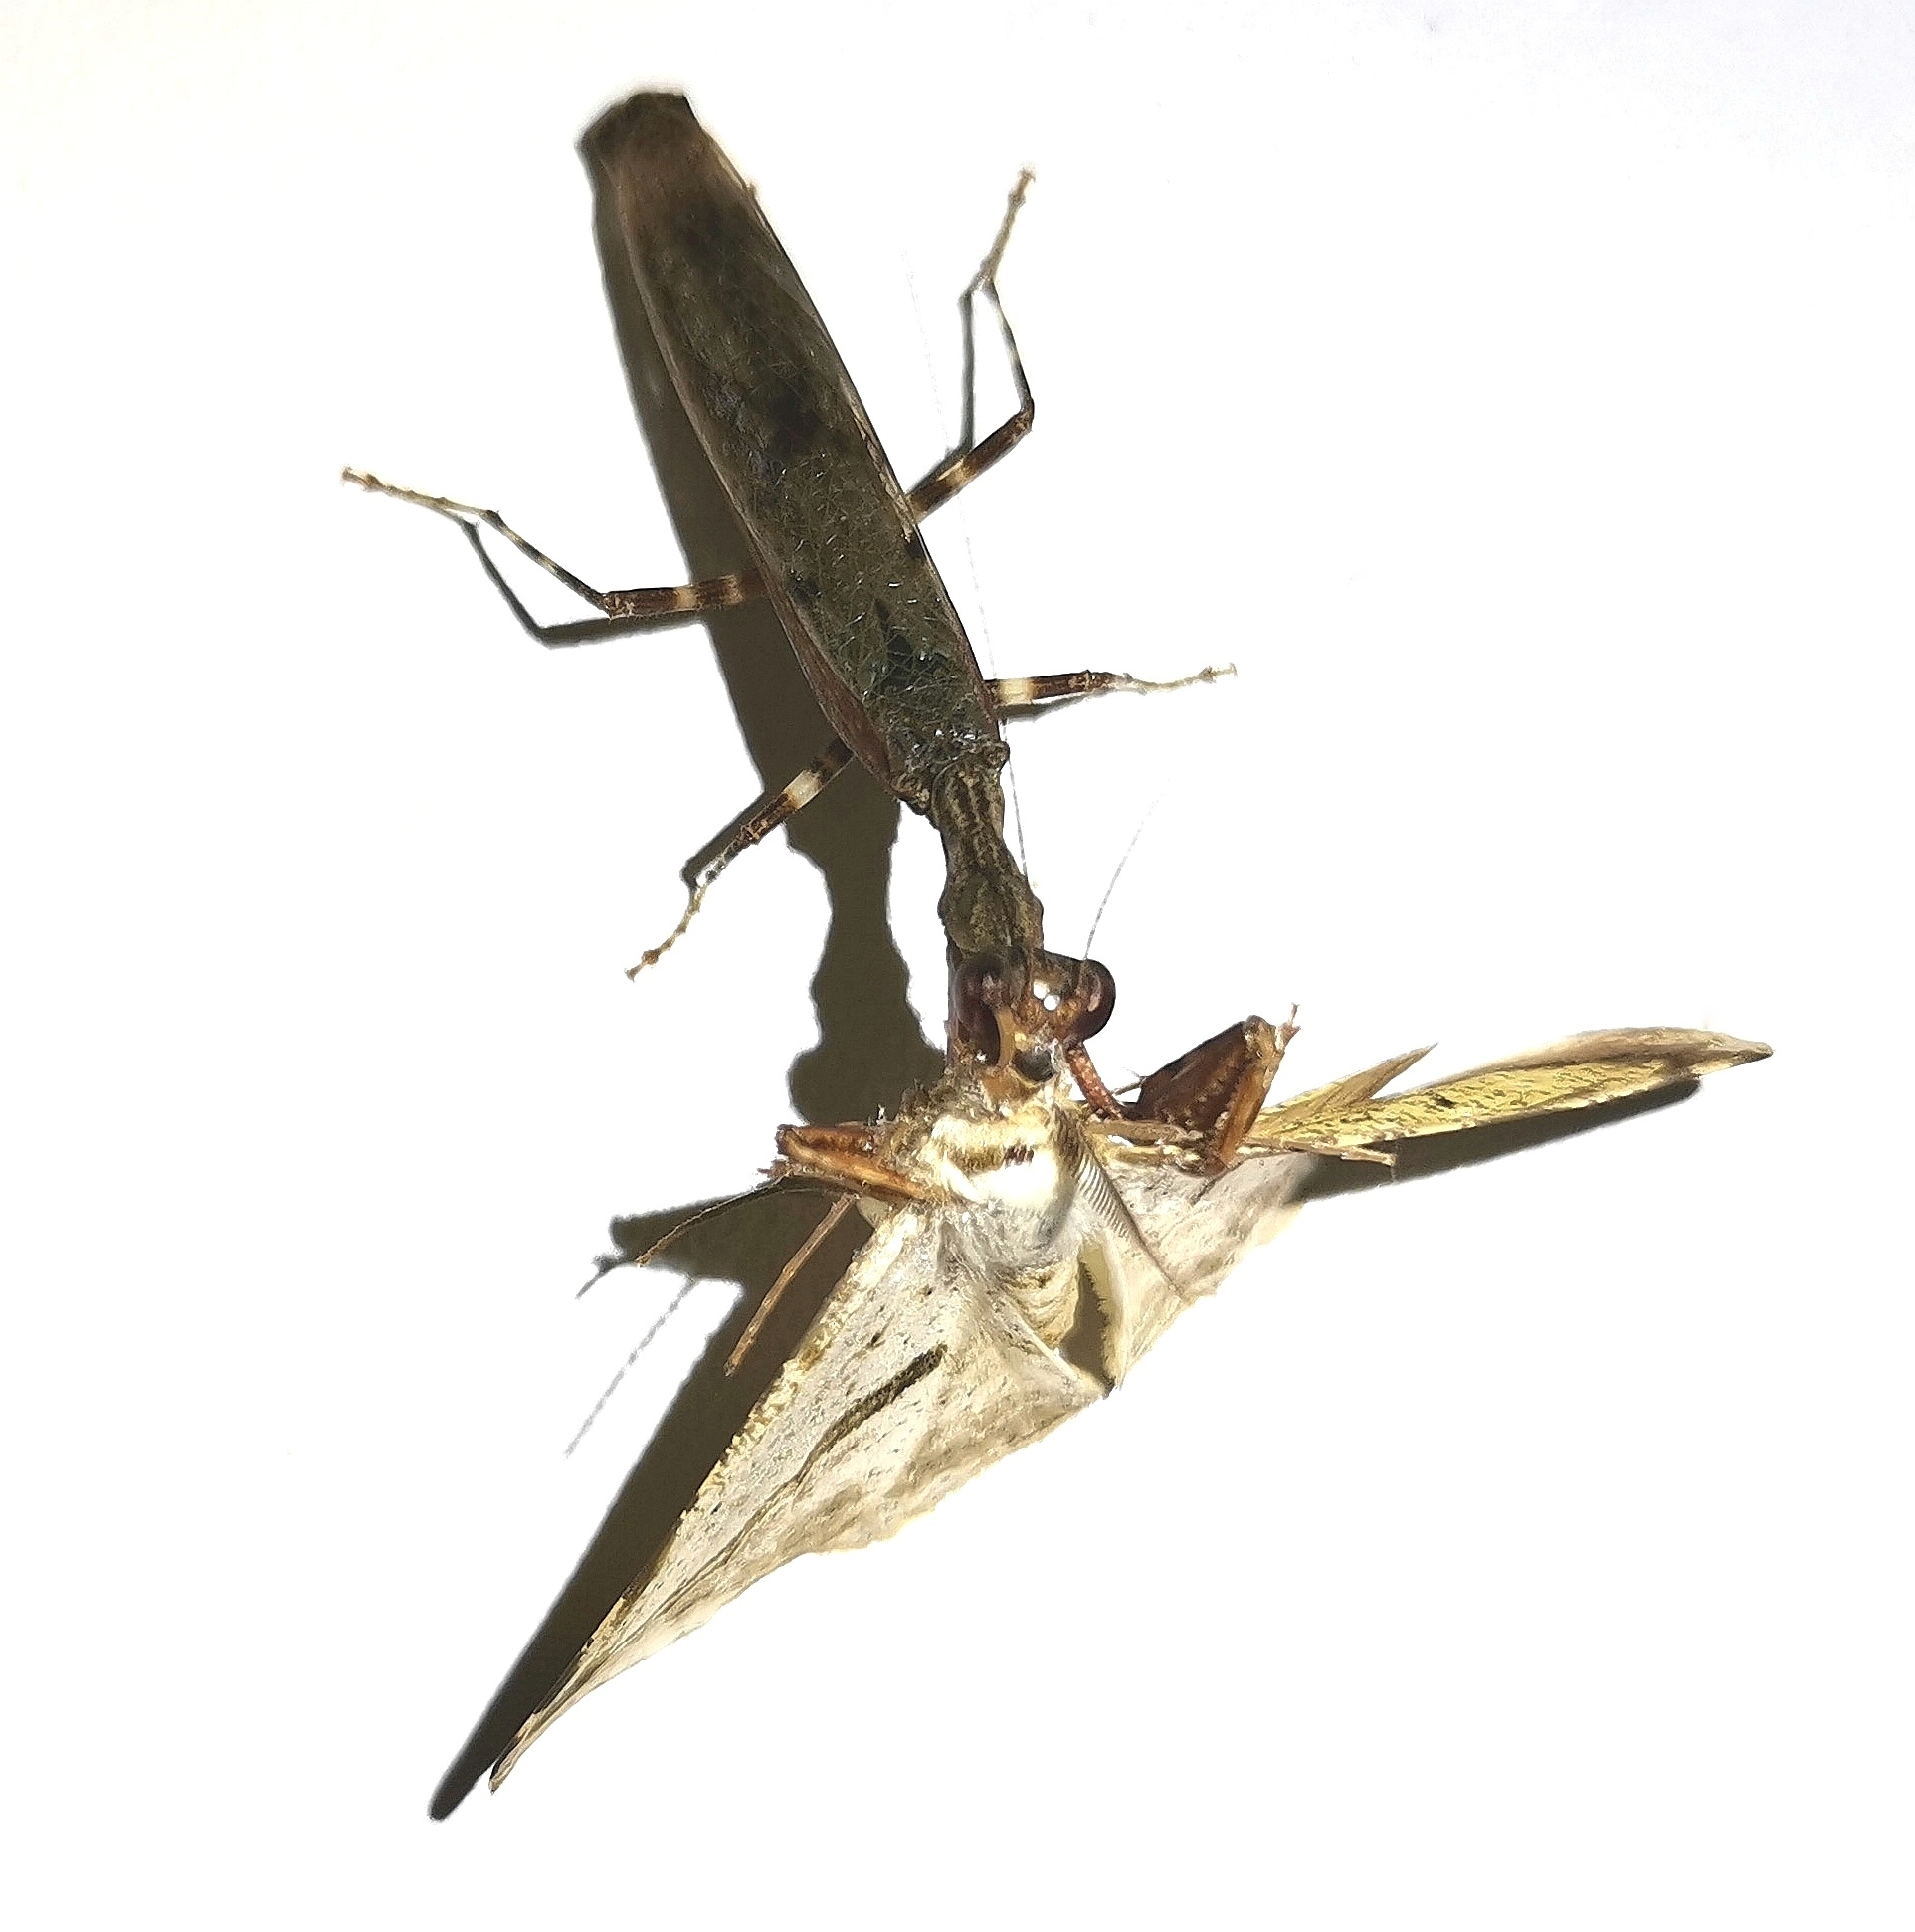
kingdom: Animalia
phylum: Arthropoda
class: Insecta
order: Mantodea
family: Acanthopidae
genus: Raptrix
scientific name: Raptrix occidentalis
